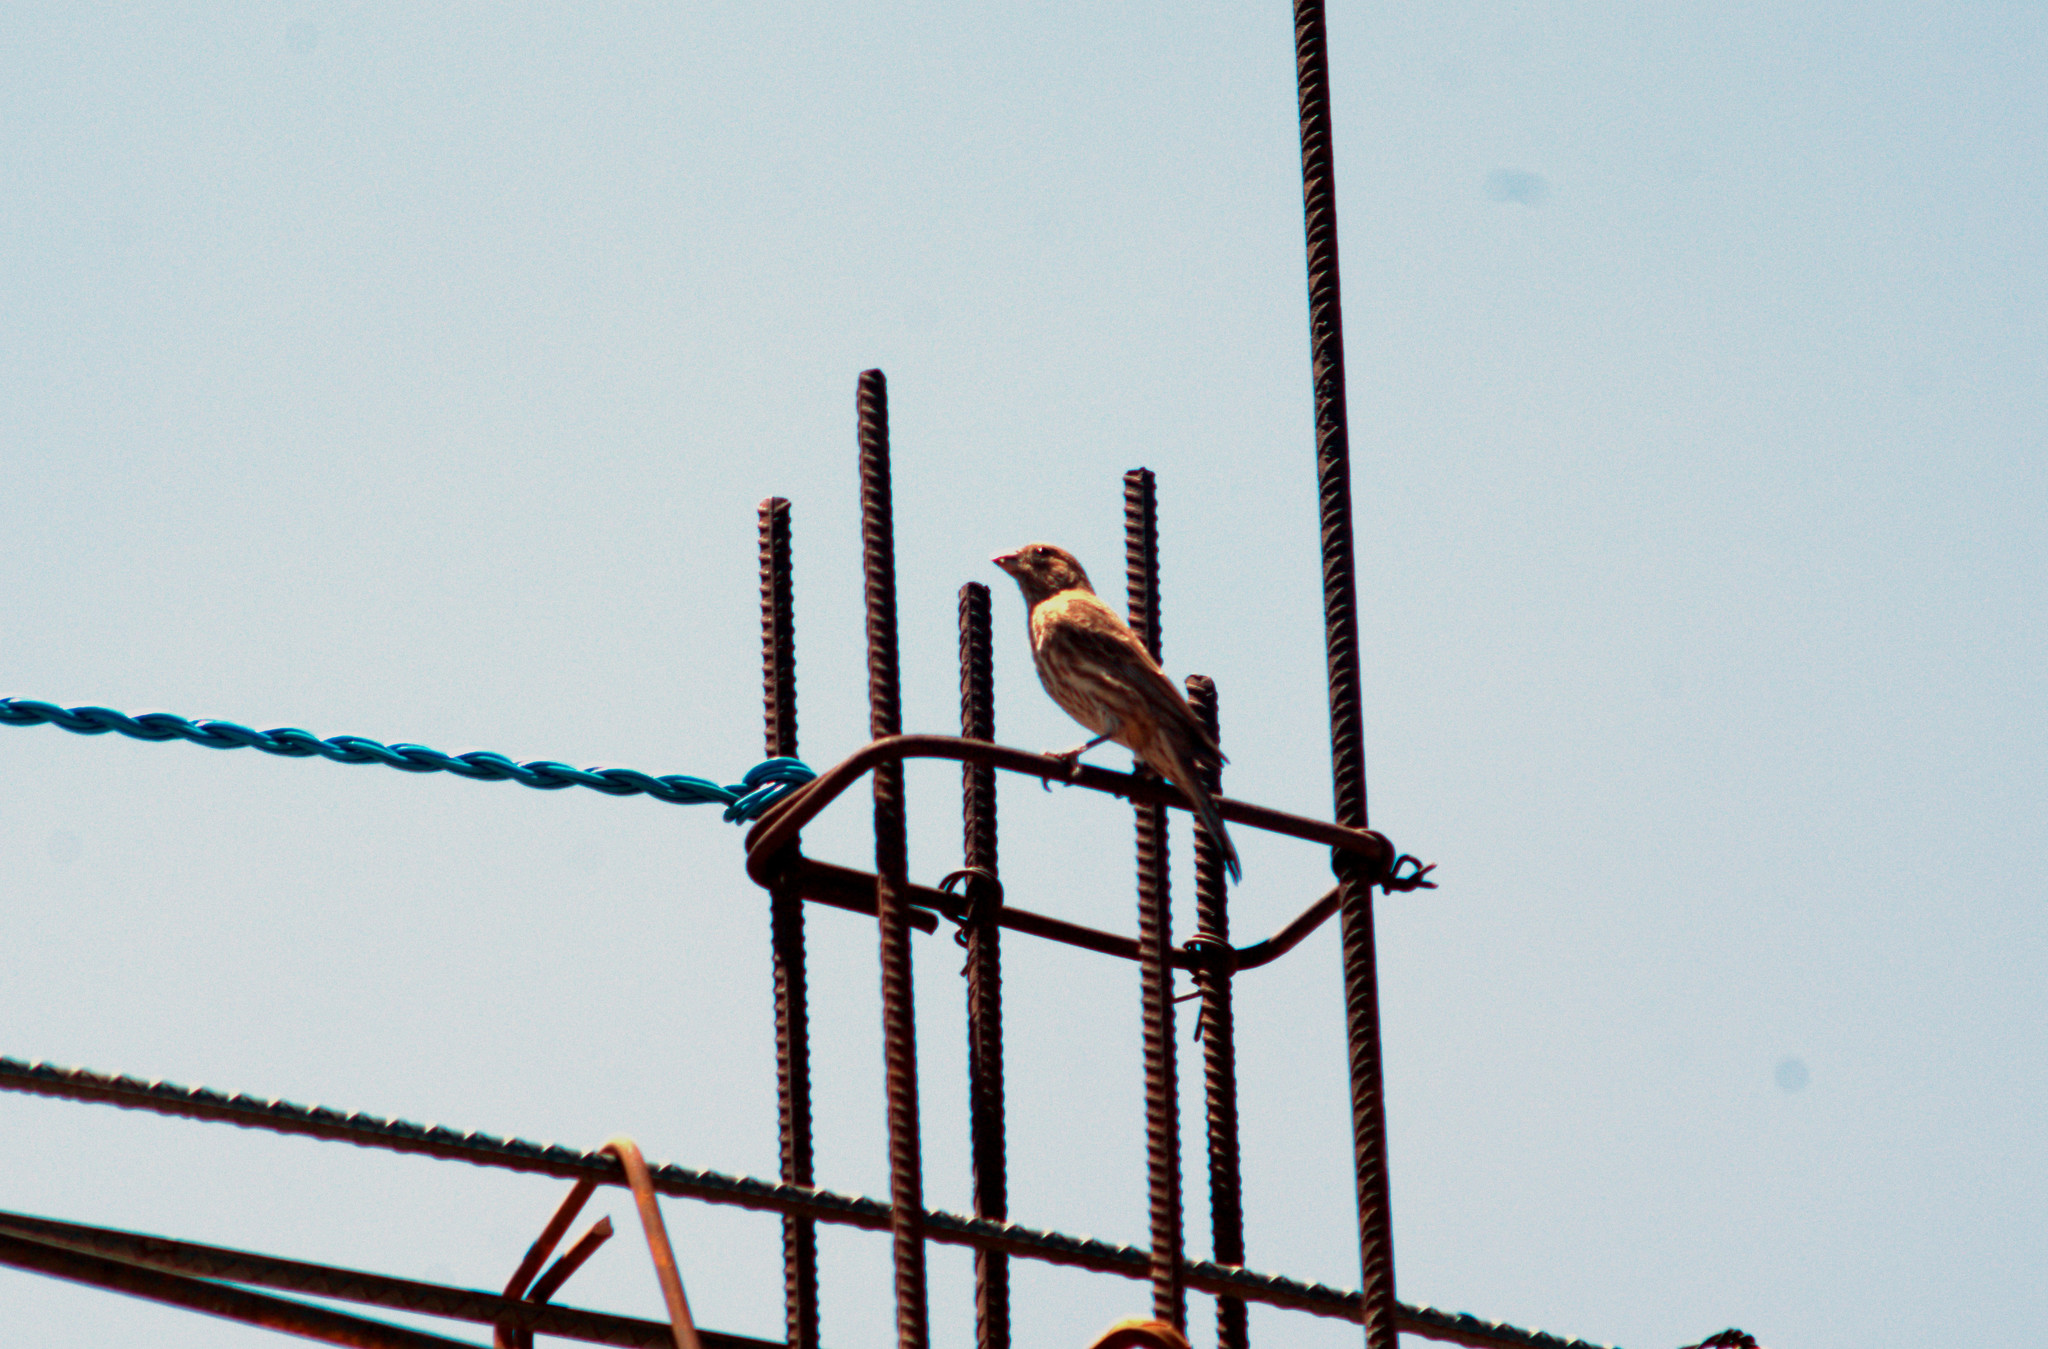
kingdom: Animalia
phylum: Chordata
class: Aves
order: Passeriformes
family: Fringillidae
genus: Haemorhous
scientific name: Haemorhous mexicanus
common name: House finch
